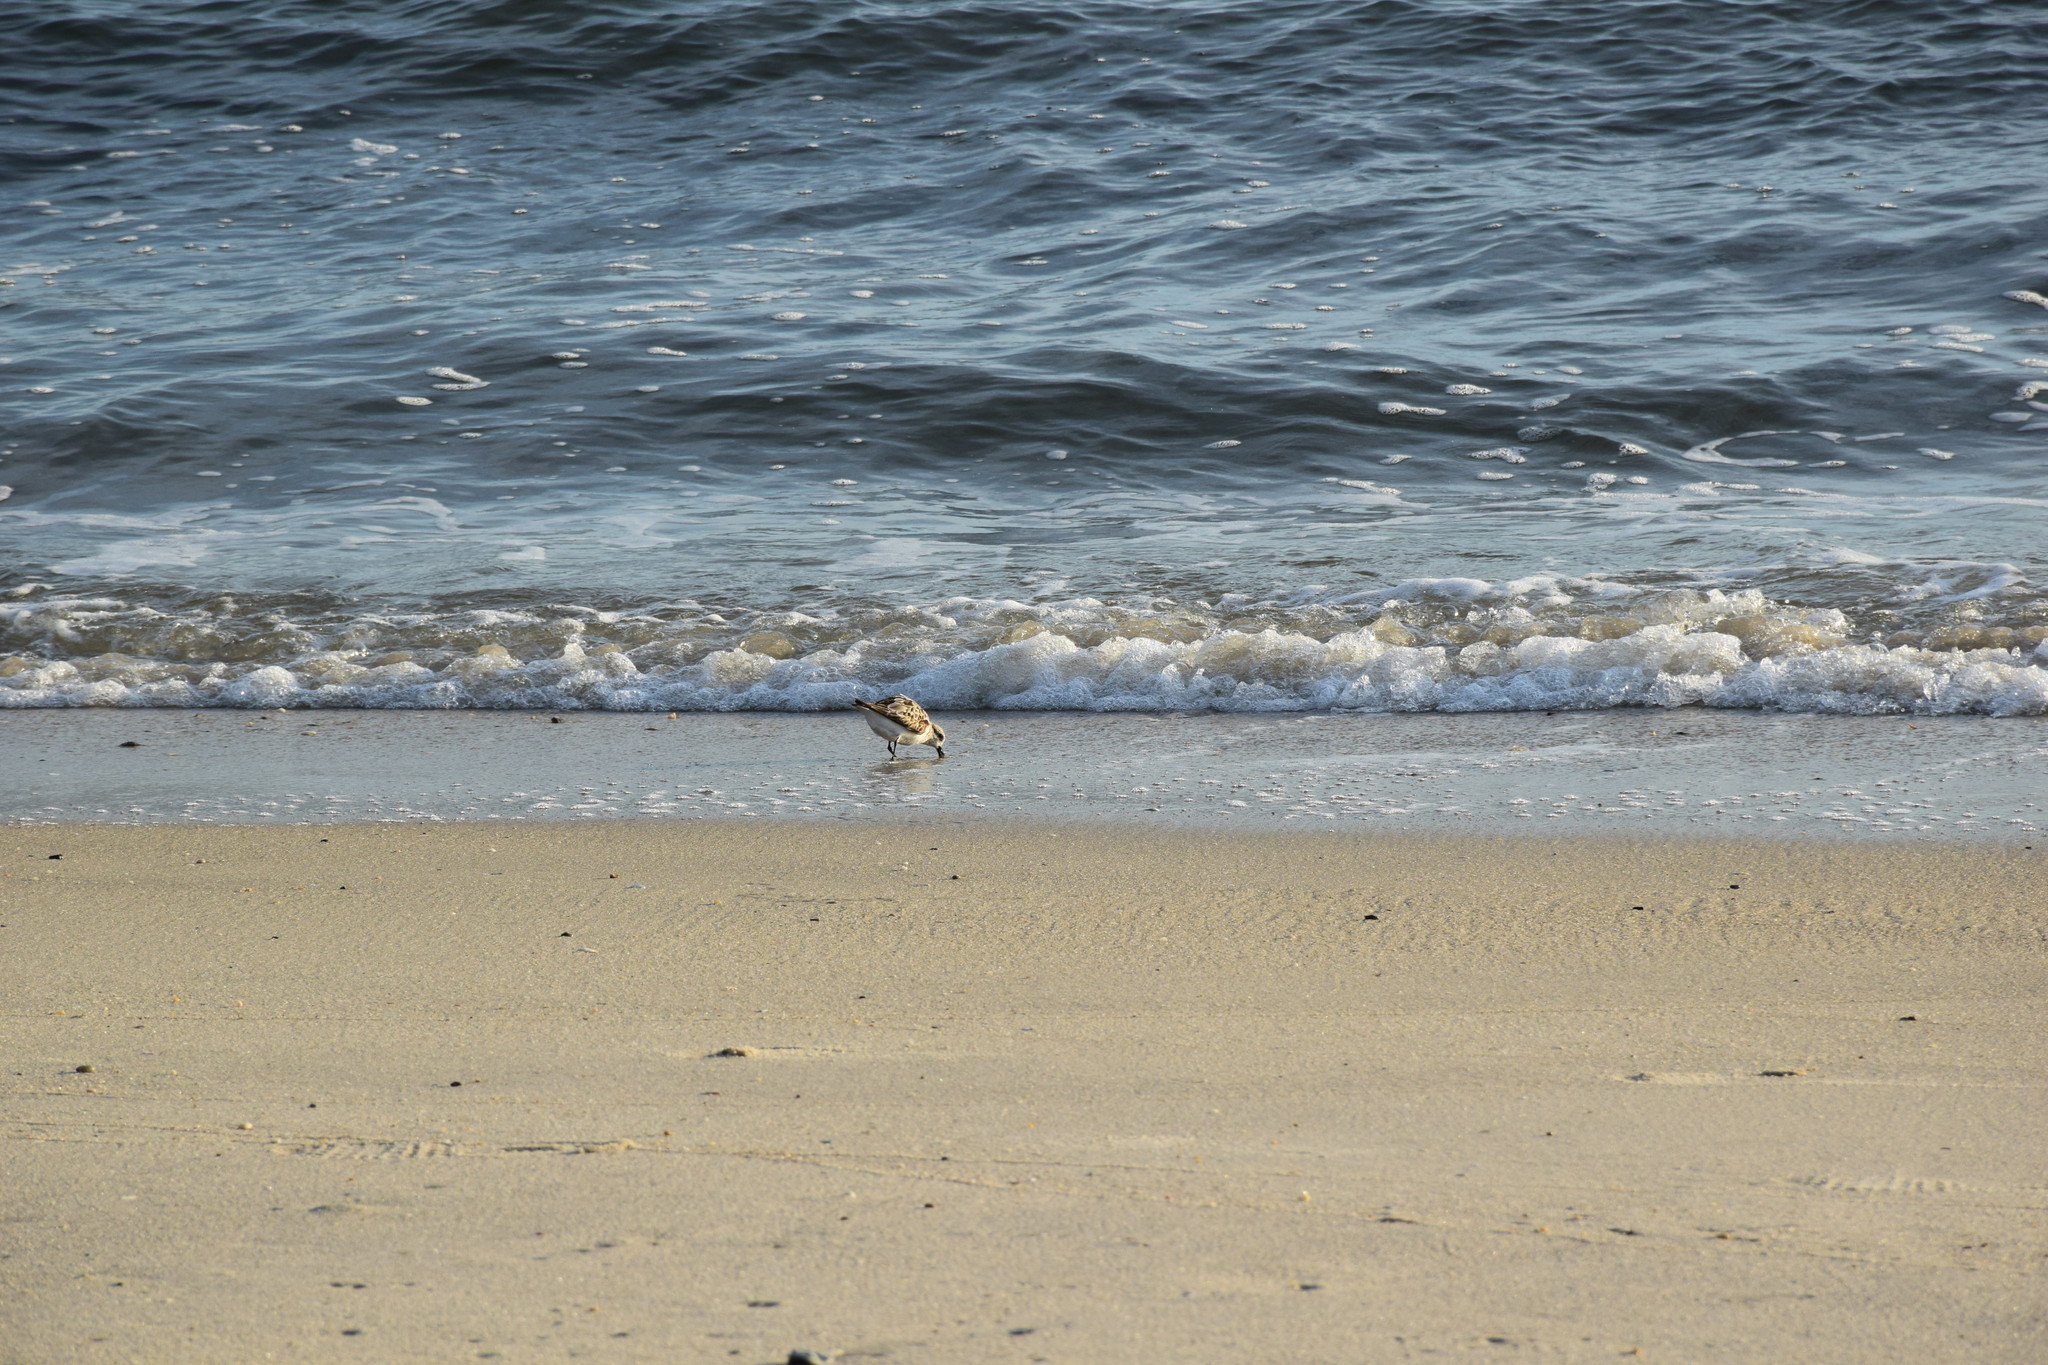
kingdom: Animalia
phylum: Chordata
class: Aves
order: Charadriiformes
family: Scolopacidae
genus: Calidris
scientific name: Calidris alba
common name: Sanderling
